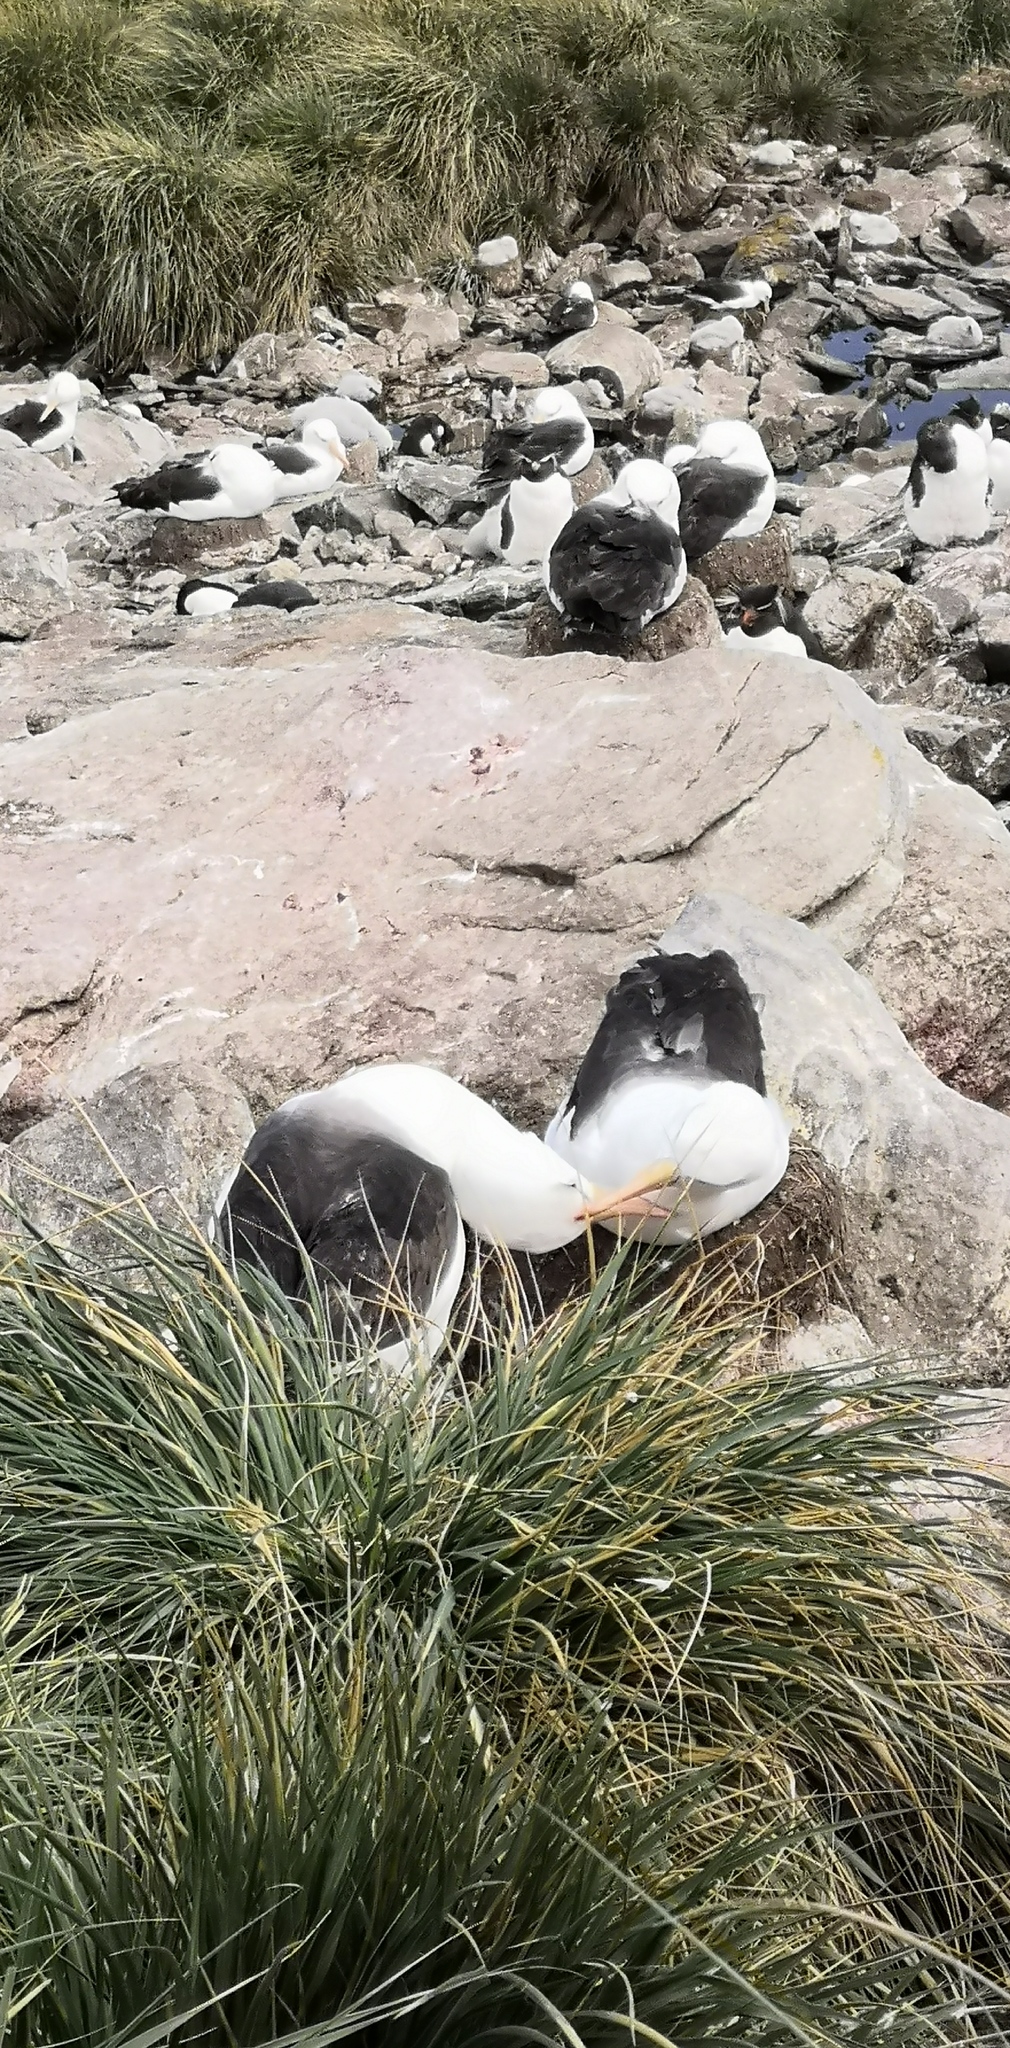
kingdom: Animalia
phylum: Chordata
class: Aves
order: Procellariiformes
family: Diomedeidae
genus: Thalassarche
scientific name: Thalassarche melanophris
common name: Black-browed albatross
